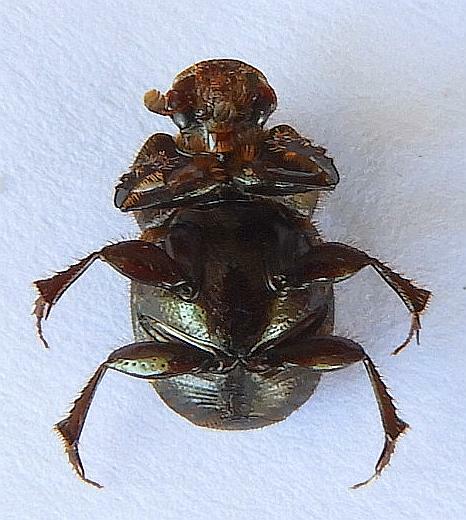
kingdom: Animalia
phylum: Arthropoda
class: Insecta
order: Coleoptera
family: Scarabaeidae
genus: Onthophagus
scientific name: Onthophagus arnetti
